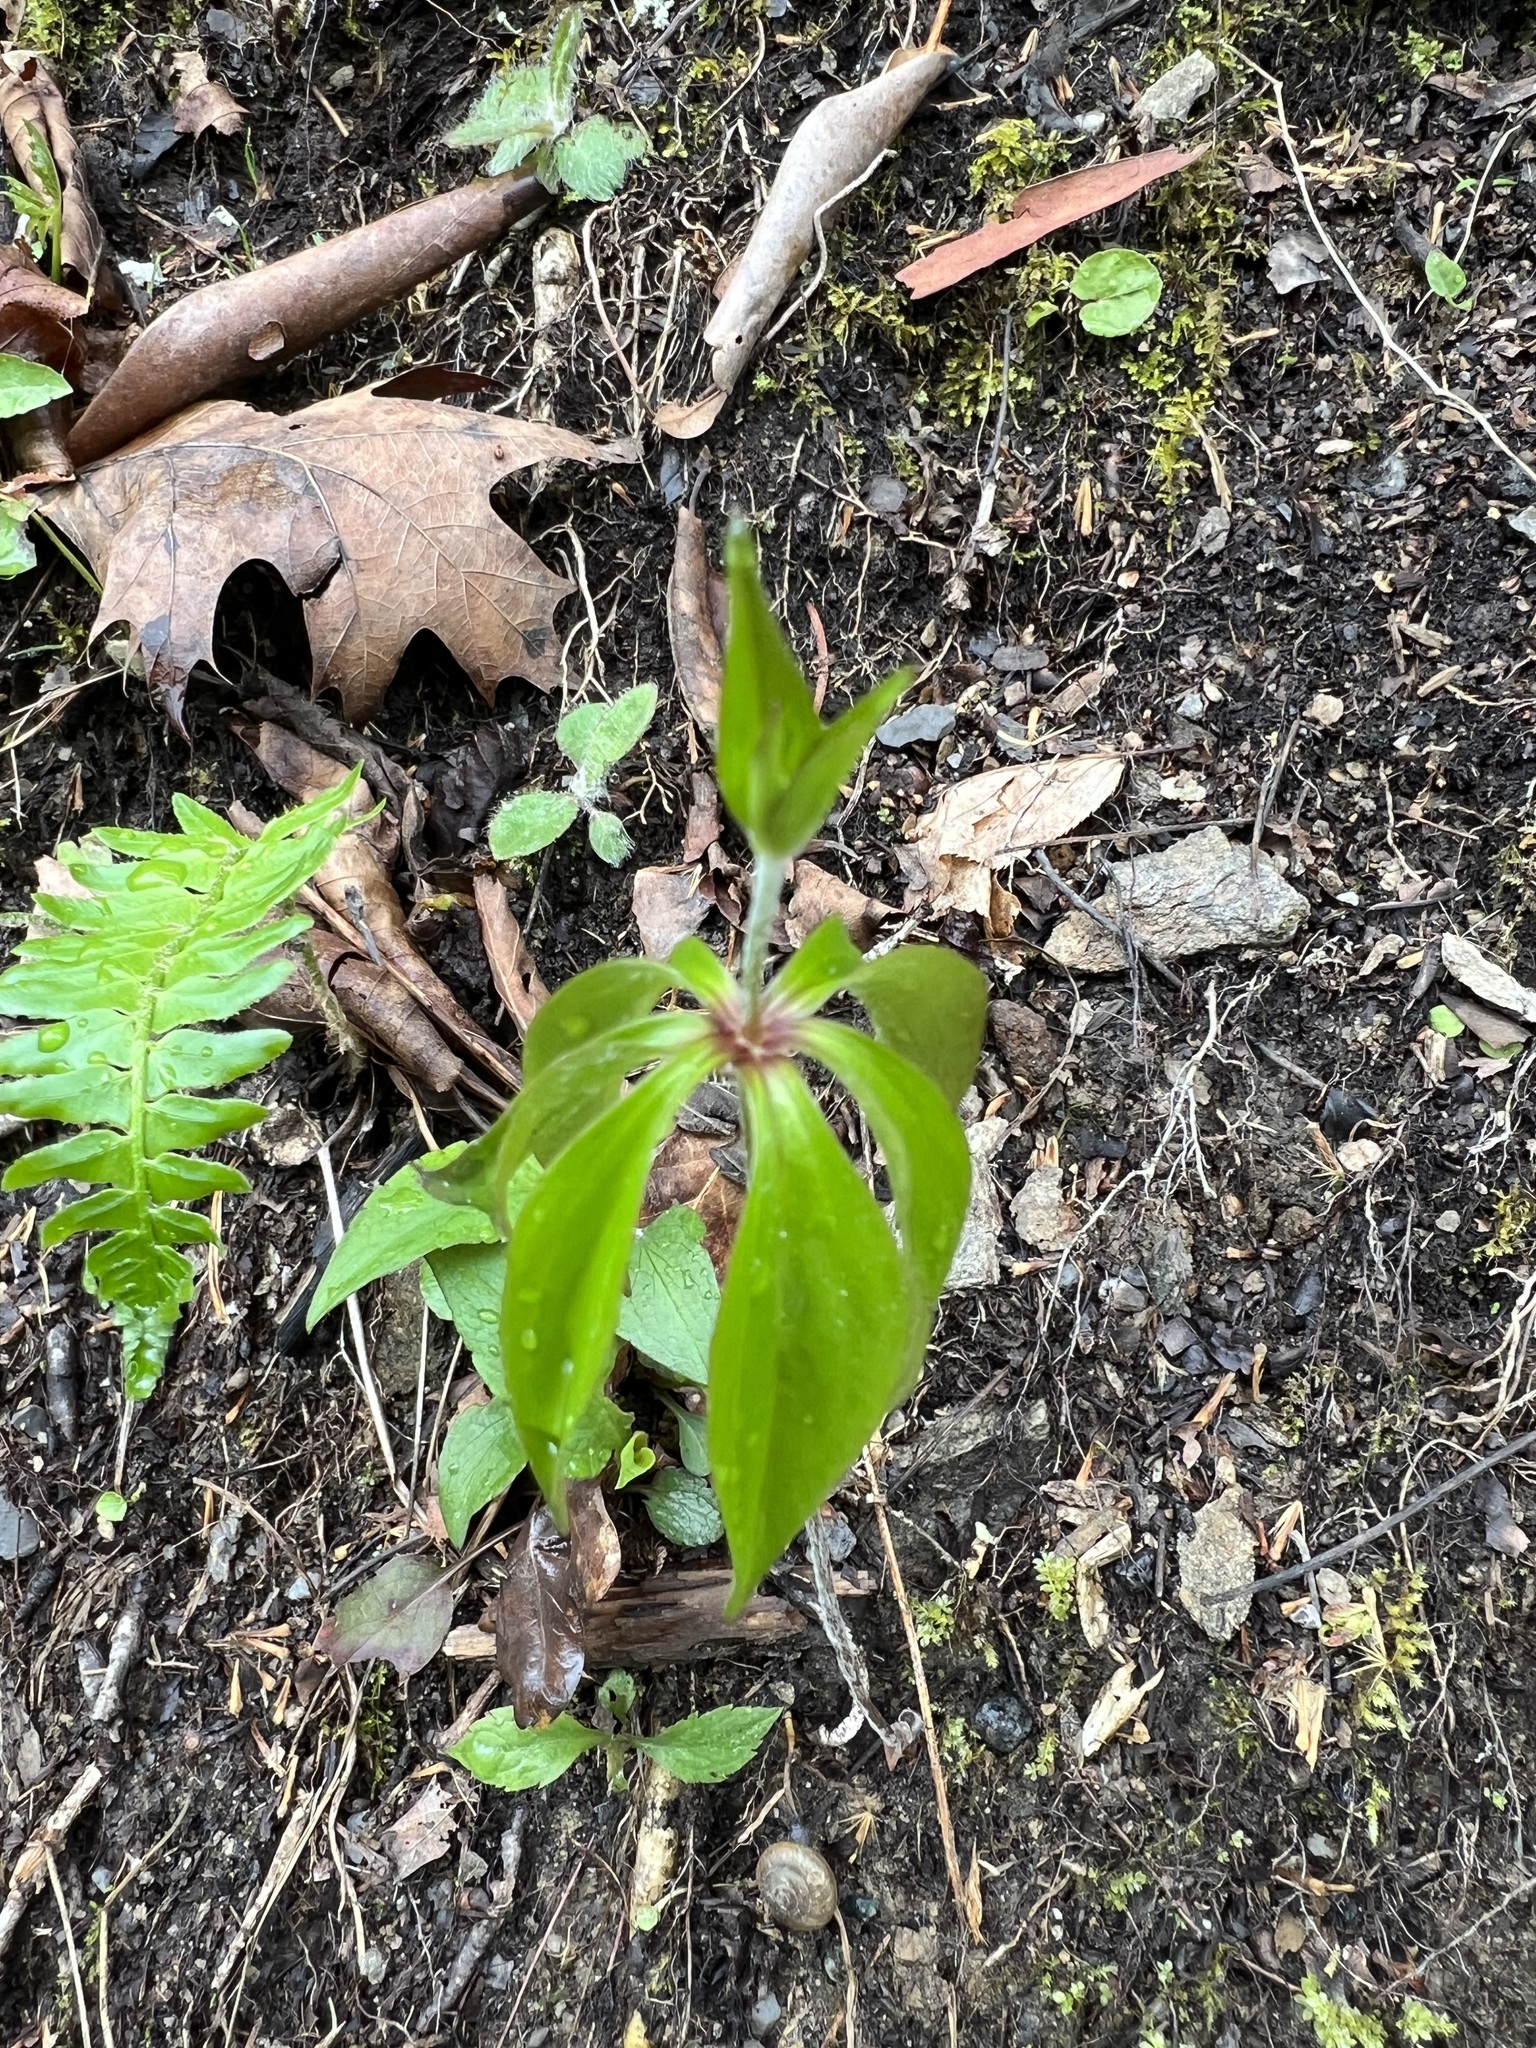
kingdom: Plantae
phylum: Tracheophyta
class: Liliopsida
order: Liliales
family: Liliaceae
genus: Medeola
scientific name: Medeola virginiana
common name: Indian cucumber-root
